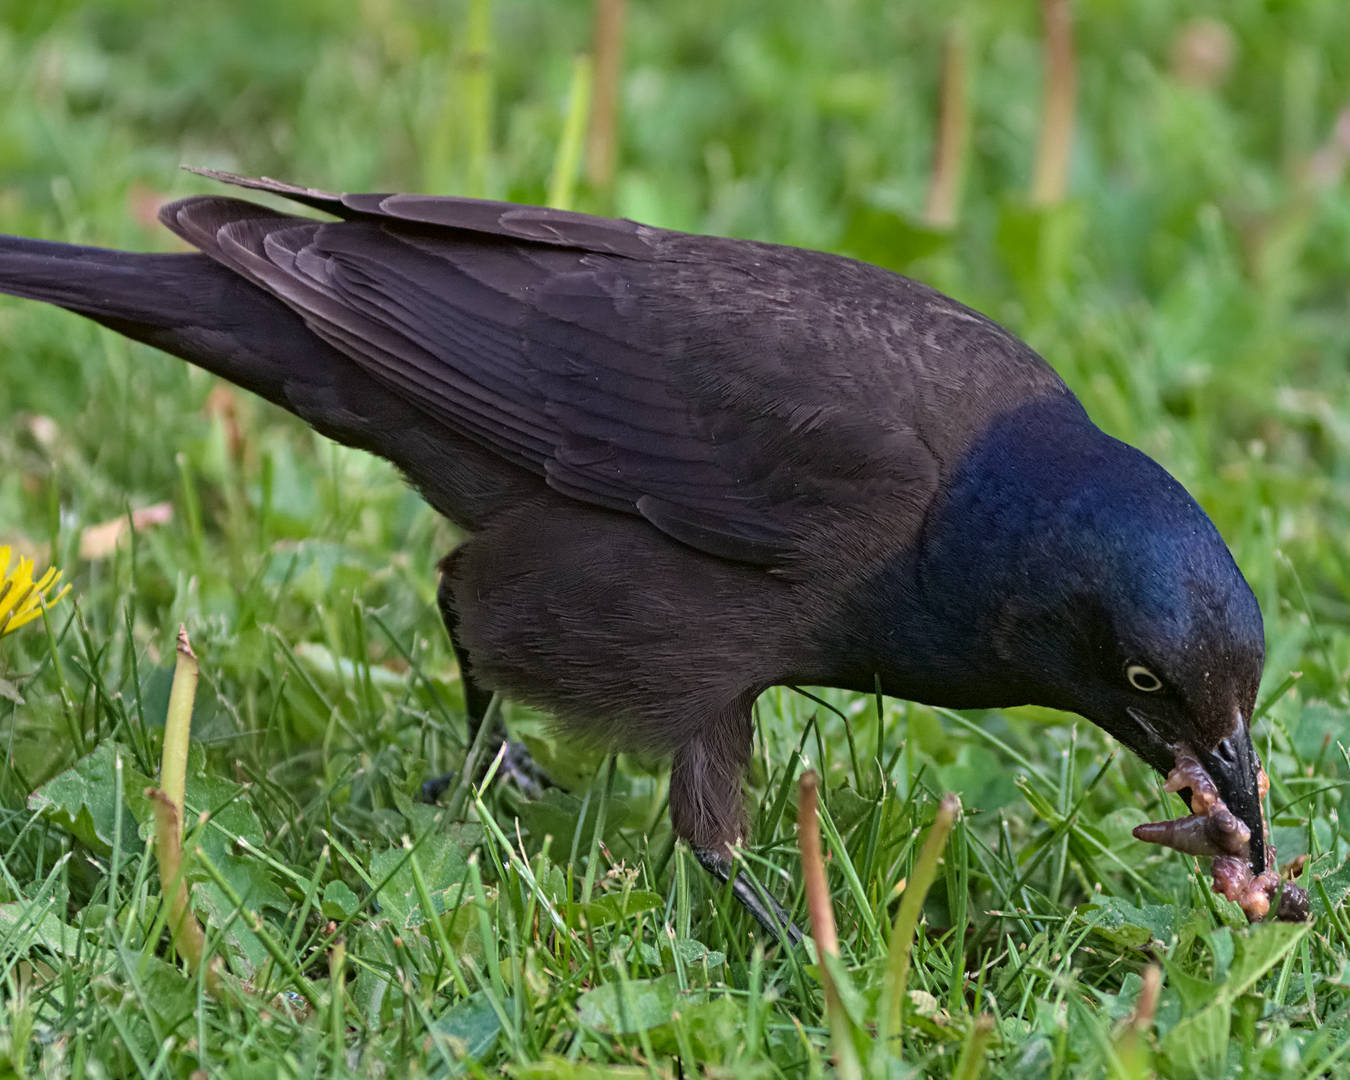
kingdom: Animalia
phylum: Chordata
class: Aves
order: Passeriformes
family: Icteridae
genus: Quiscalus
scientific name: Quiscalus quiscula
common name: Common grackle
